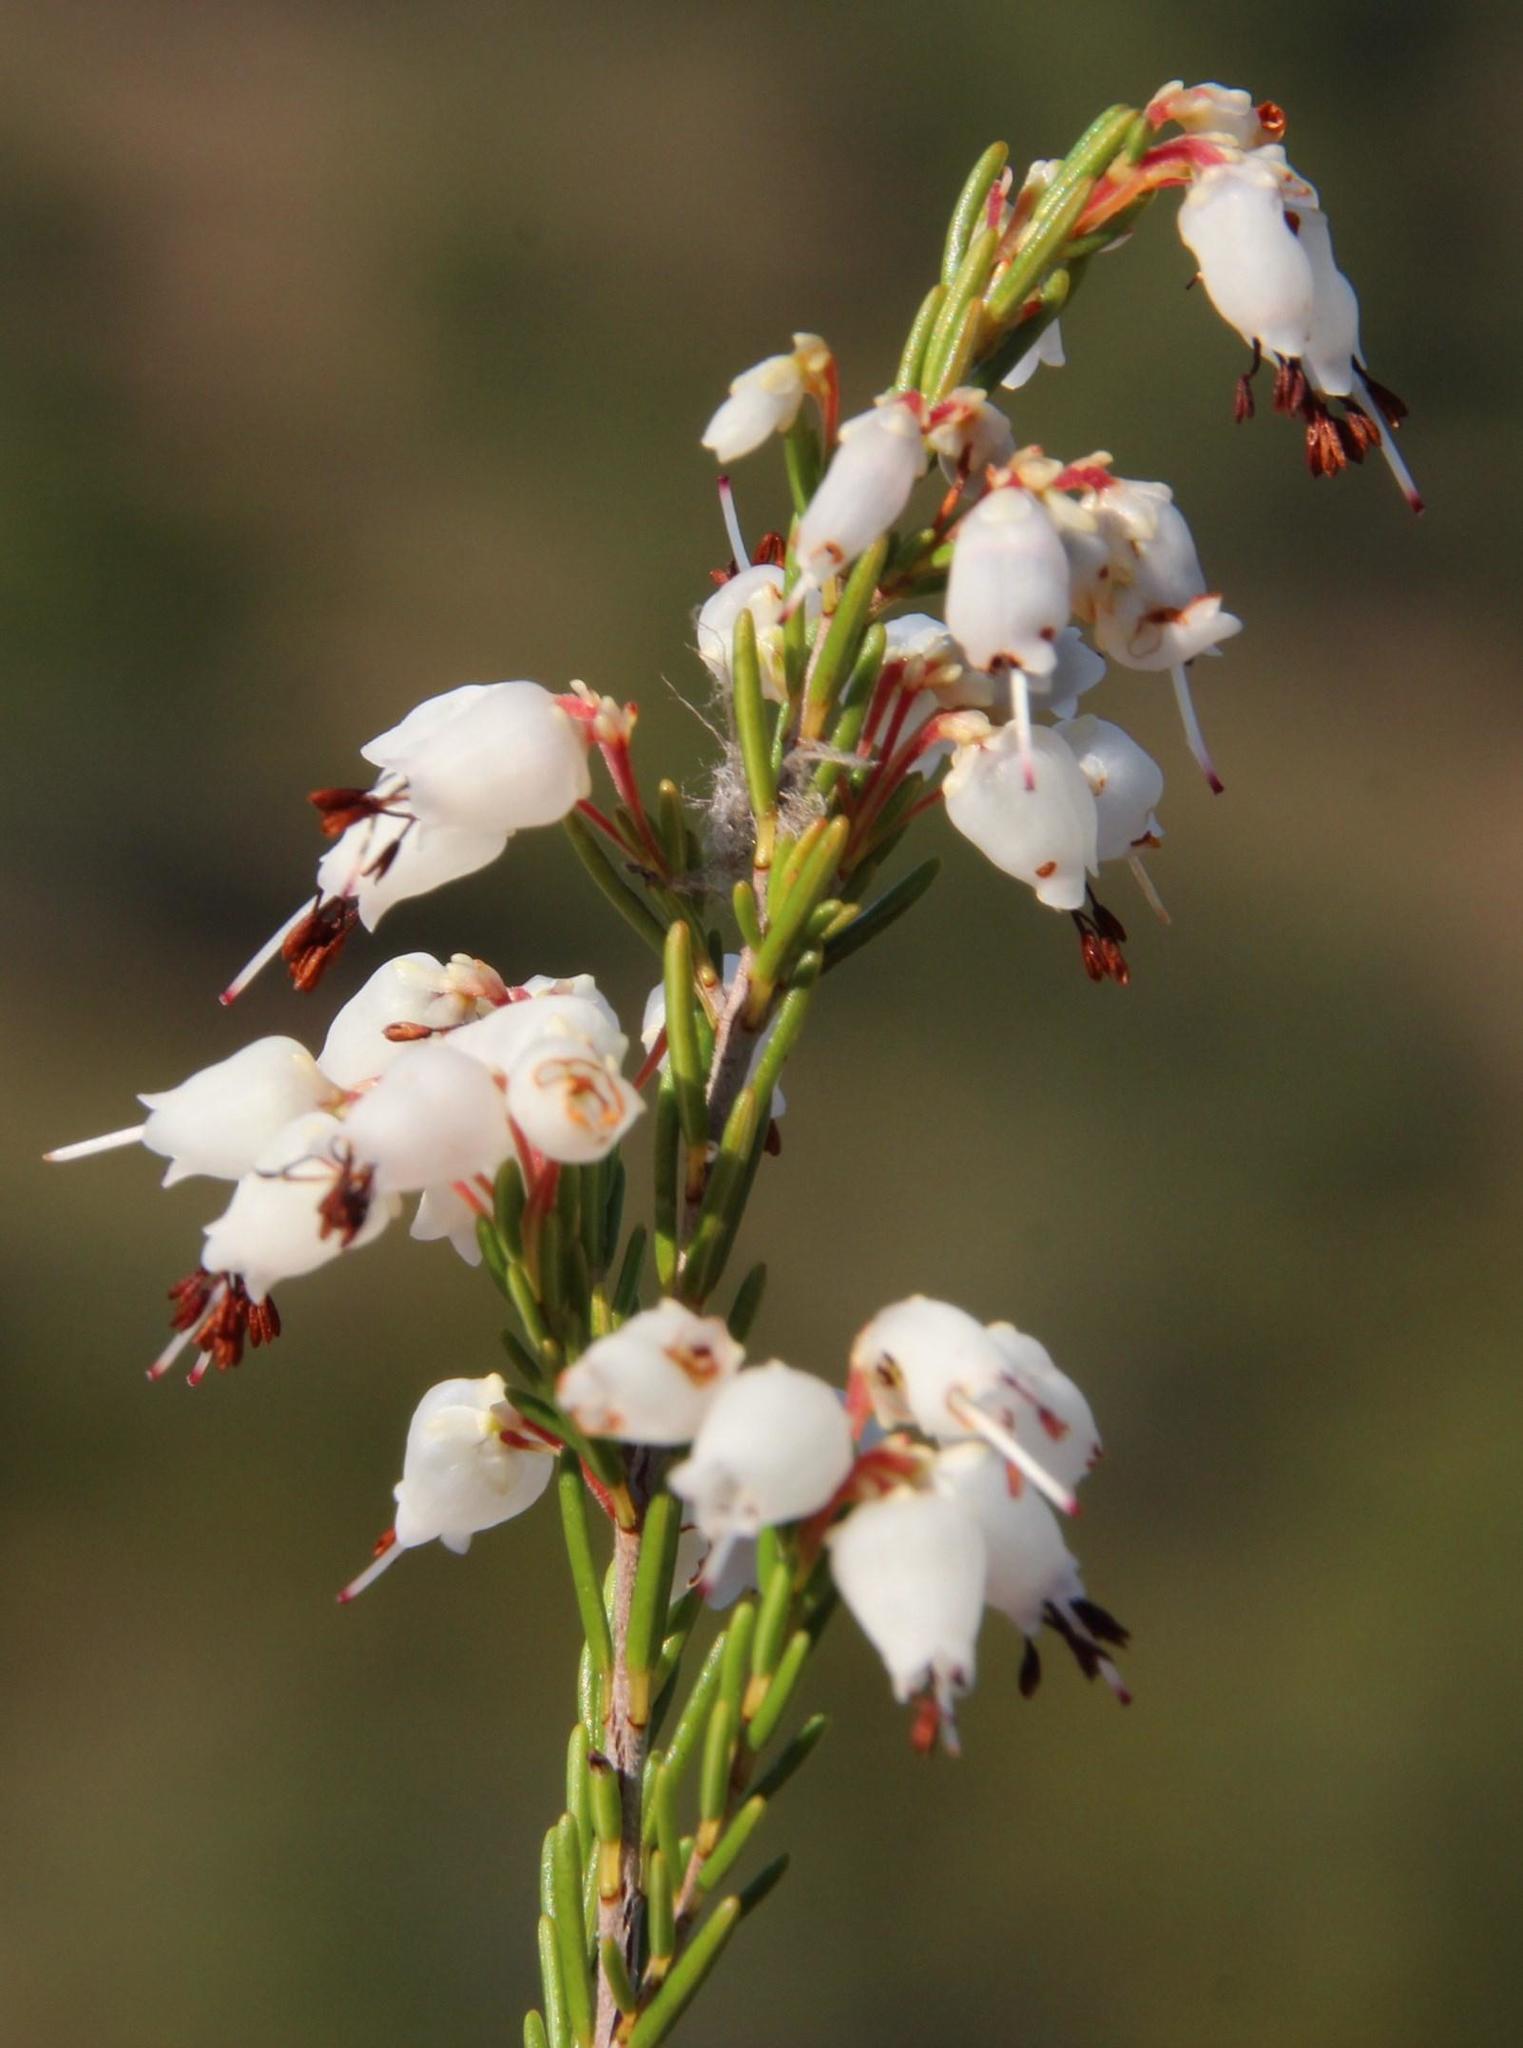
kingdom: Plantae
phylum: Tracheophyta
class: Magnoliopsida
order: Ericales
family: Ericaceae
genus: Erica
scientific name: Erica trivialis
